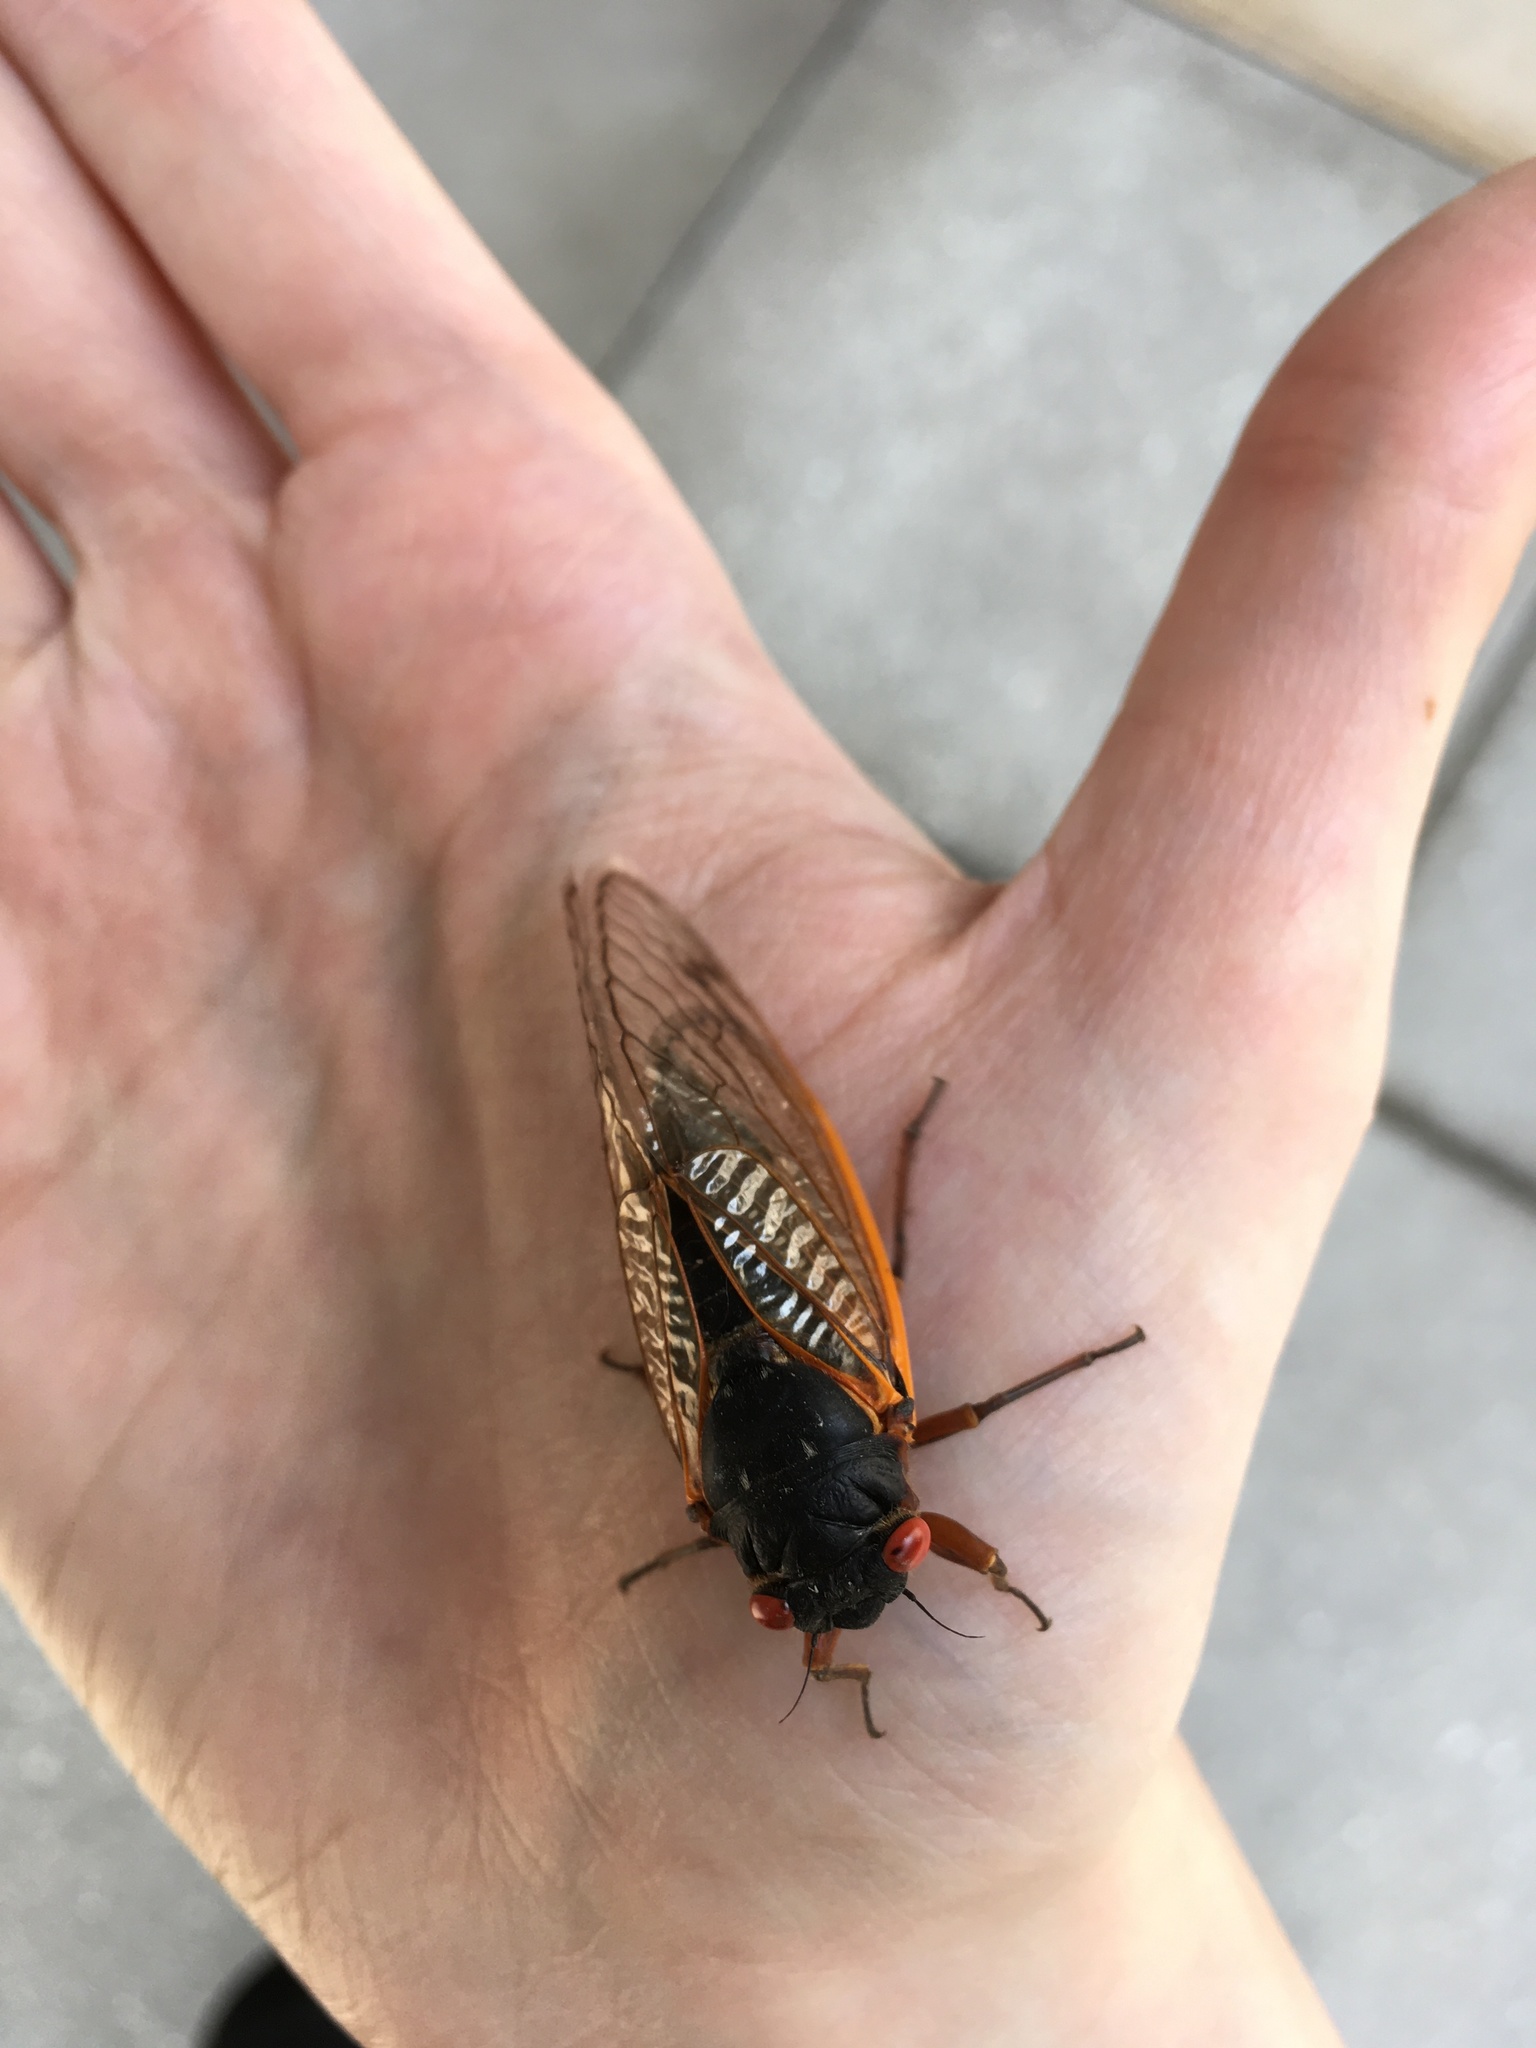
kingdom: Animalia
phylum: Arthropoda
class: Insecta
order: Hemiptera
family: Cicadidae
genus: Magicicada
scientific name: Magicicada septendecim
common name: Periodical cicada
